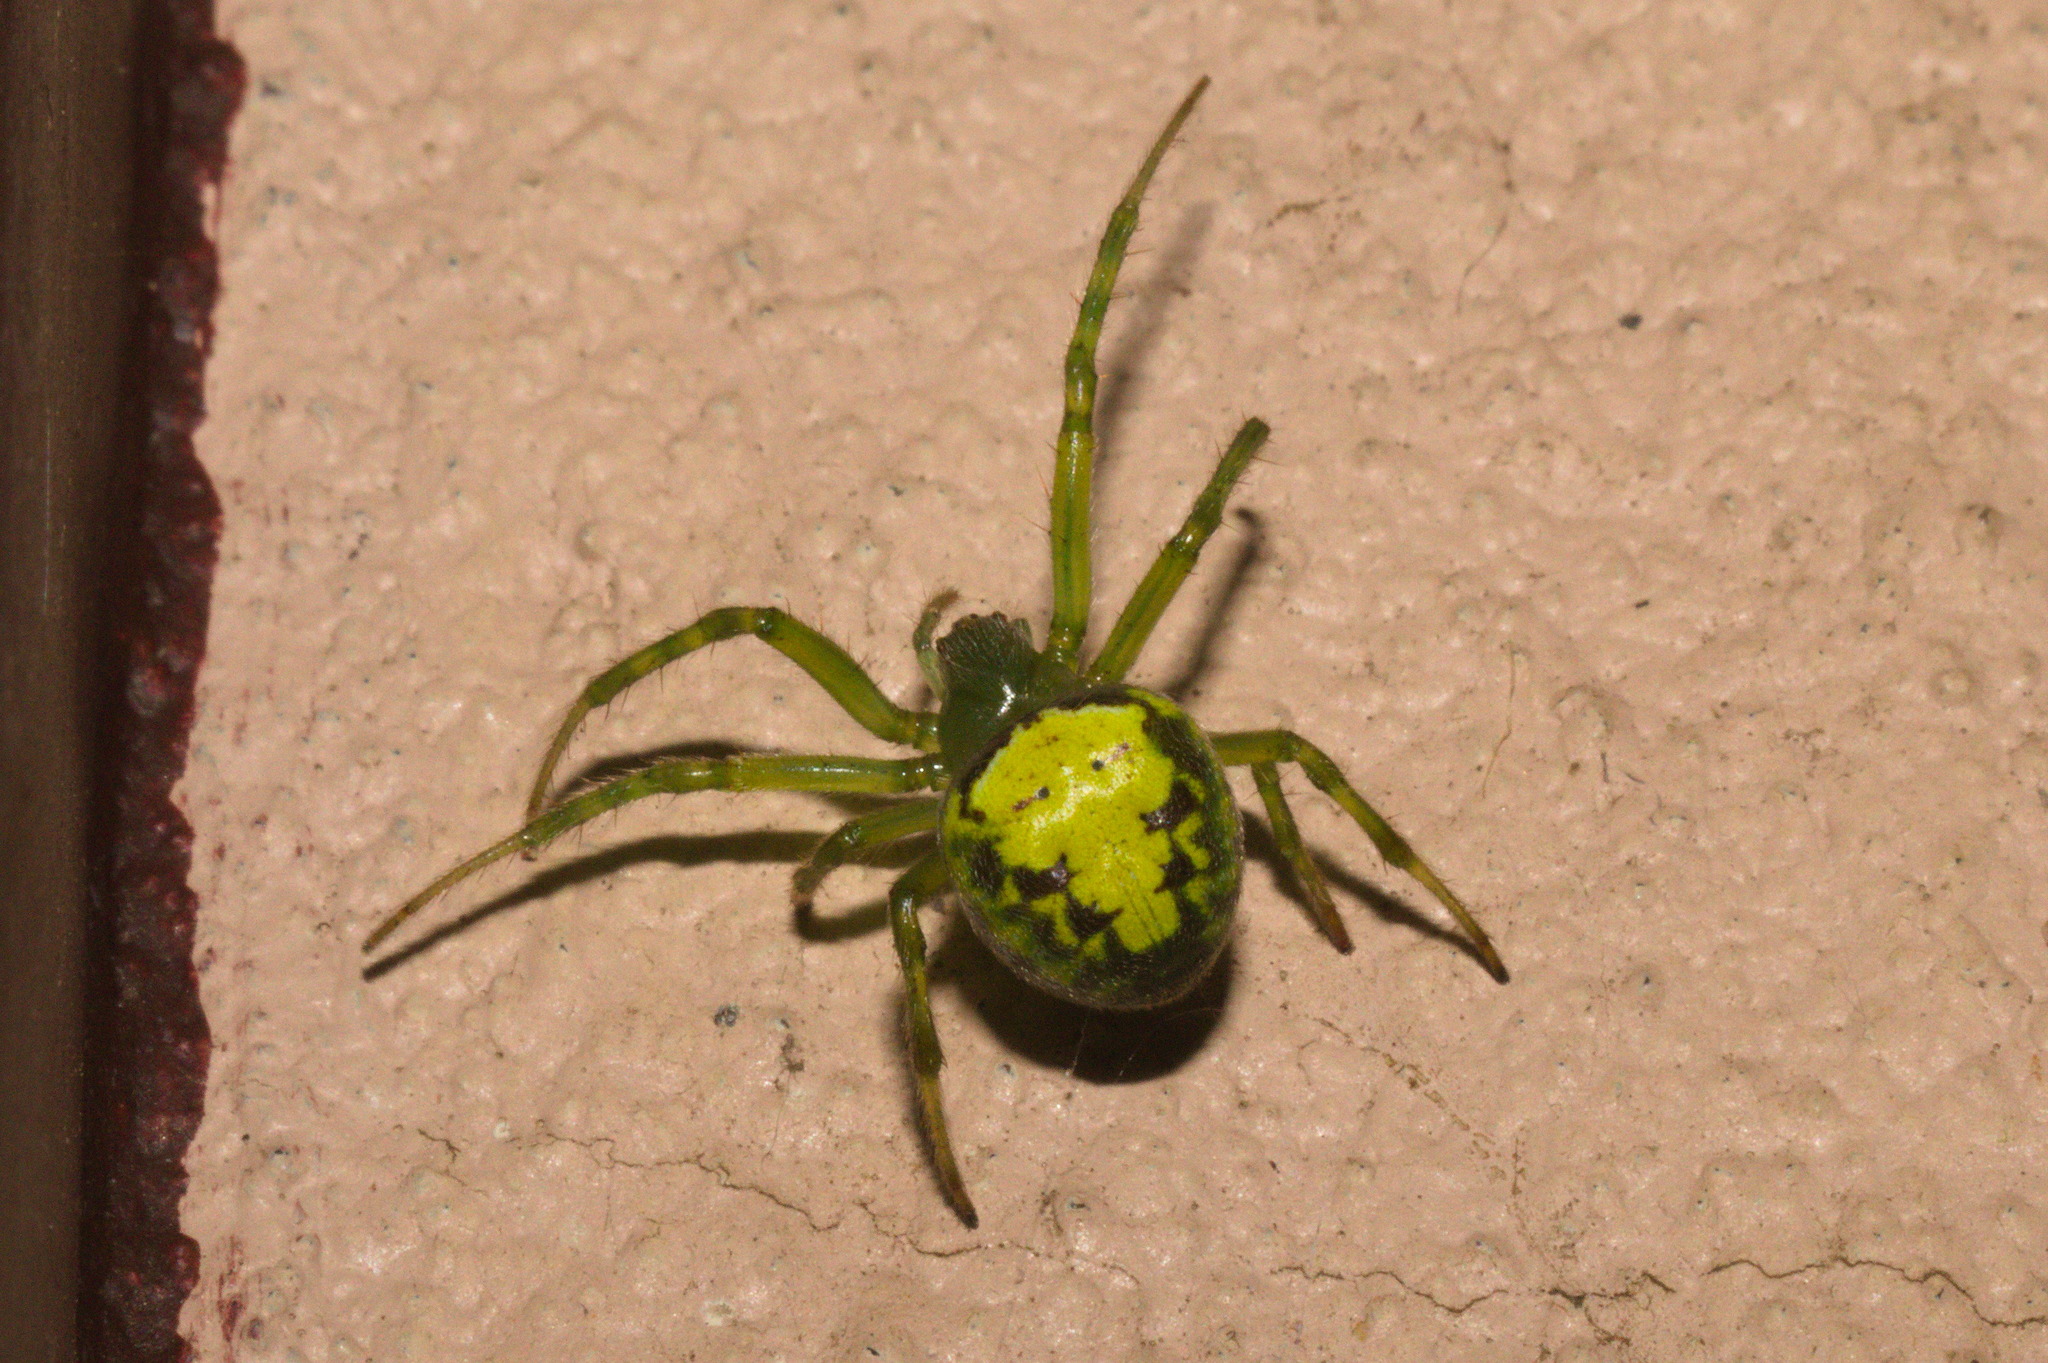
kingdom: Animalia
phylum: Arthropoda
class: Arachnida
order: Araneae
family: Araneidae
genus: Araneus
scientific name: Araneus unanimus
